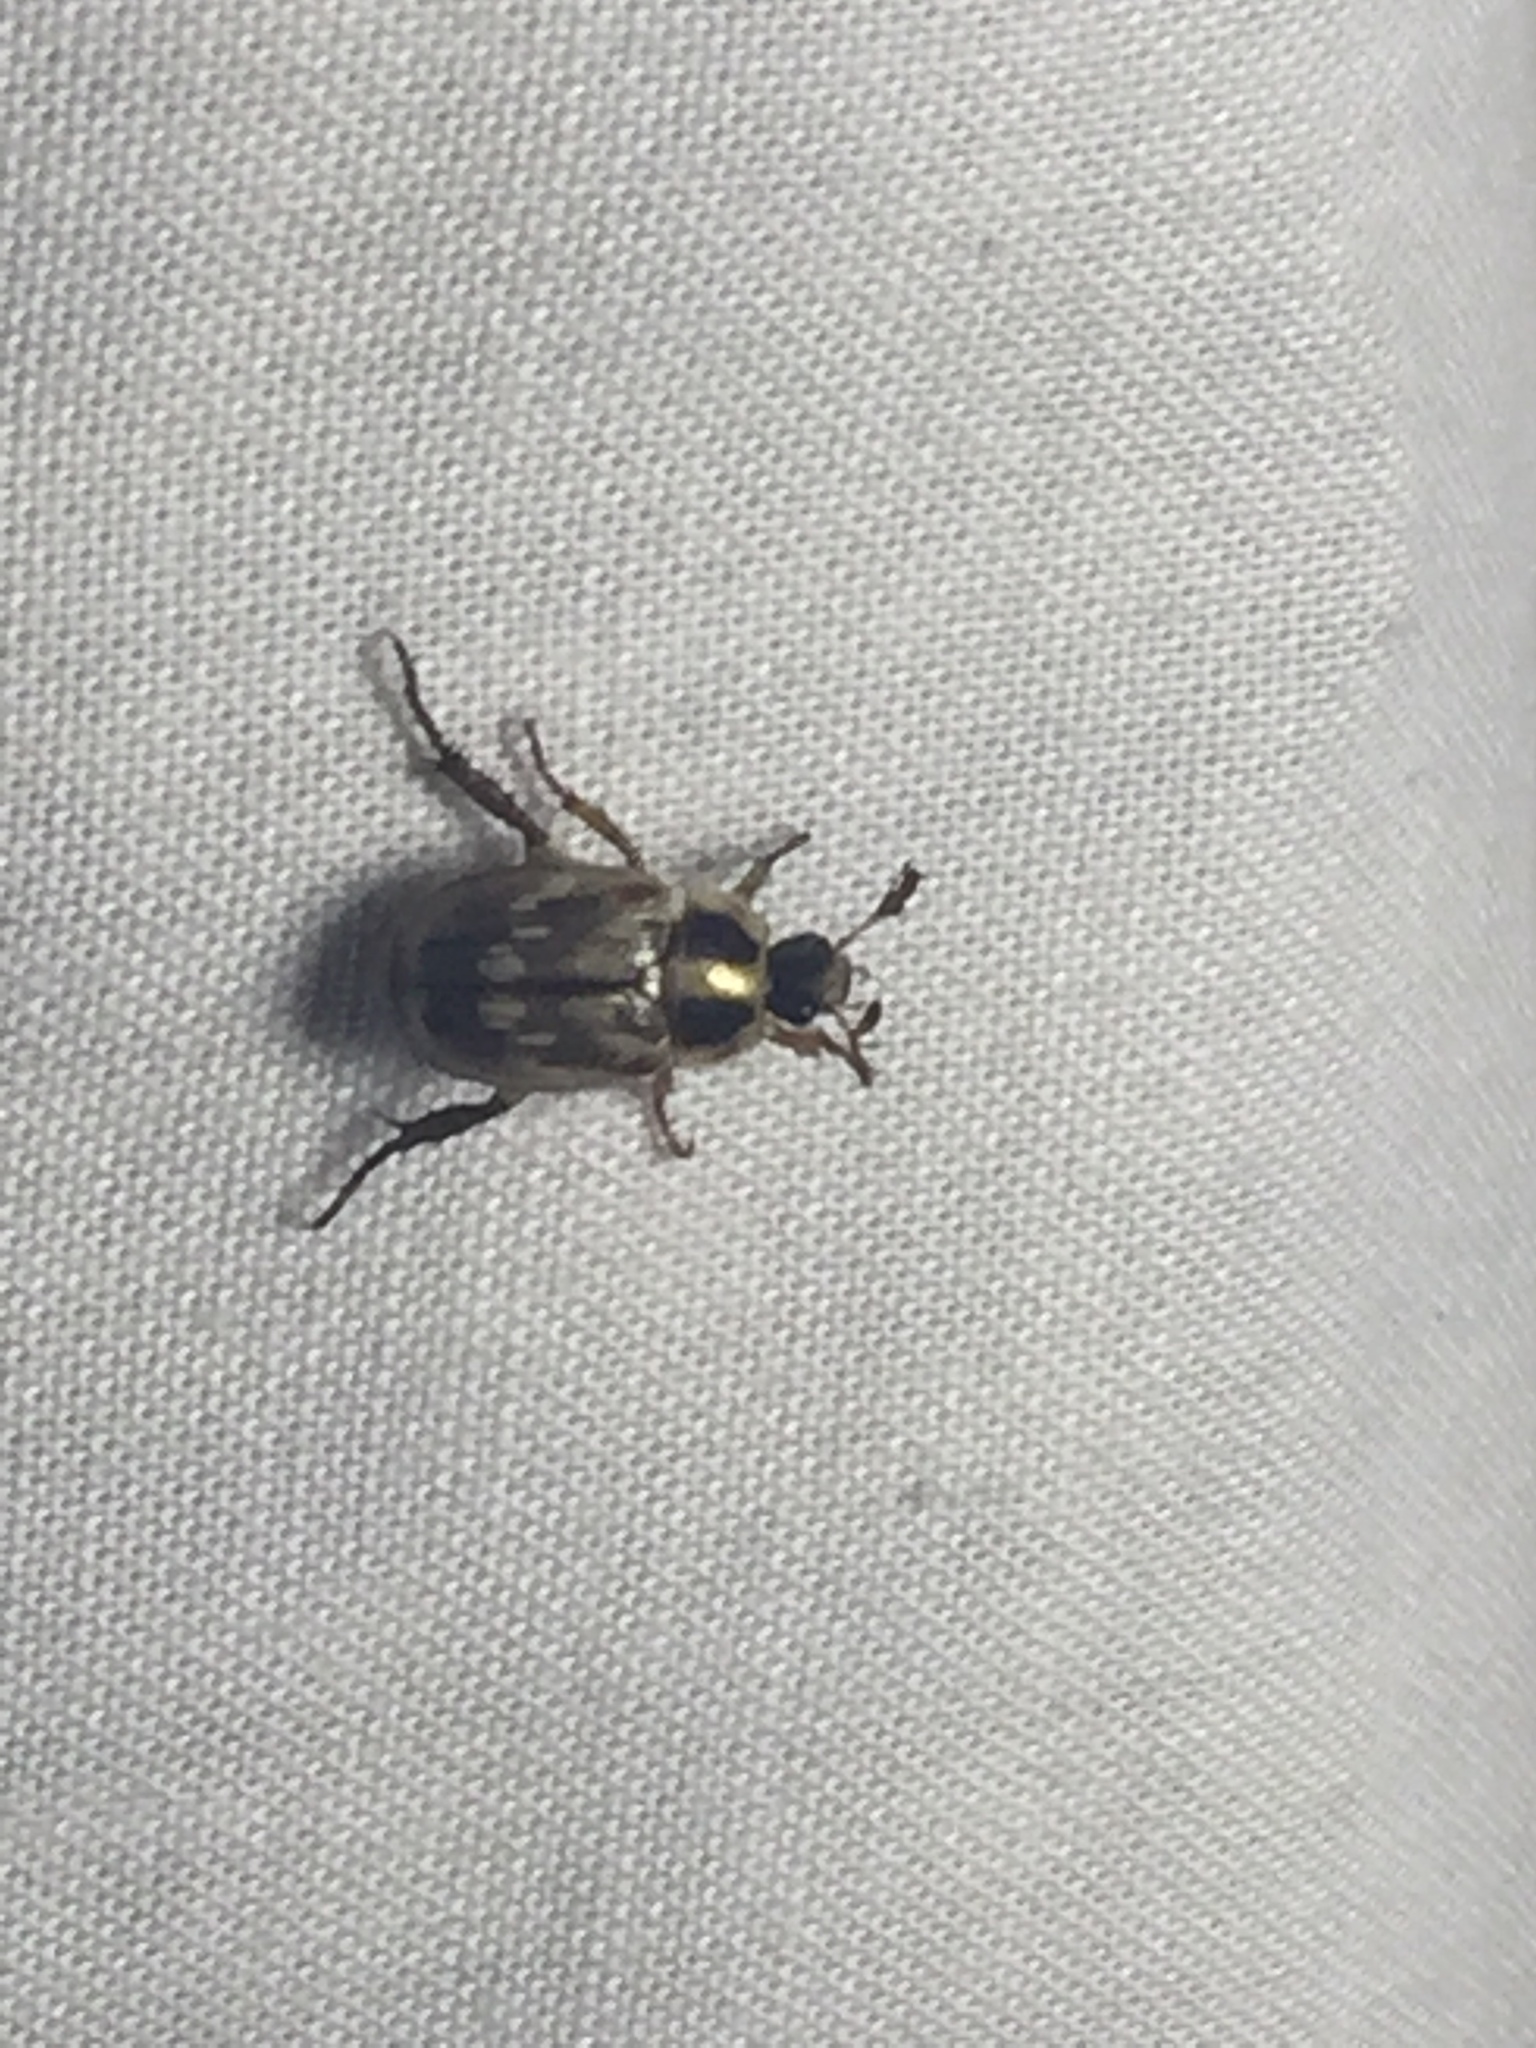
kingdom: Animalia
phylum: Arthropoda
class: Insecta
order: Coleoptera
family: Scarabaeidae
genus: Exomala
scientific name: Exomala orientalis
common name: Oriental beetle
